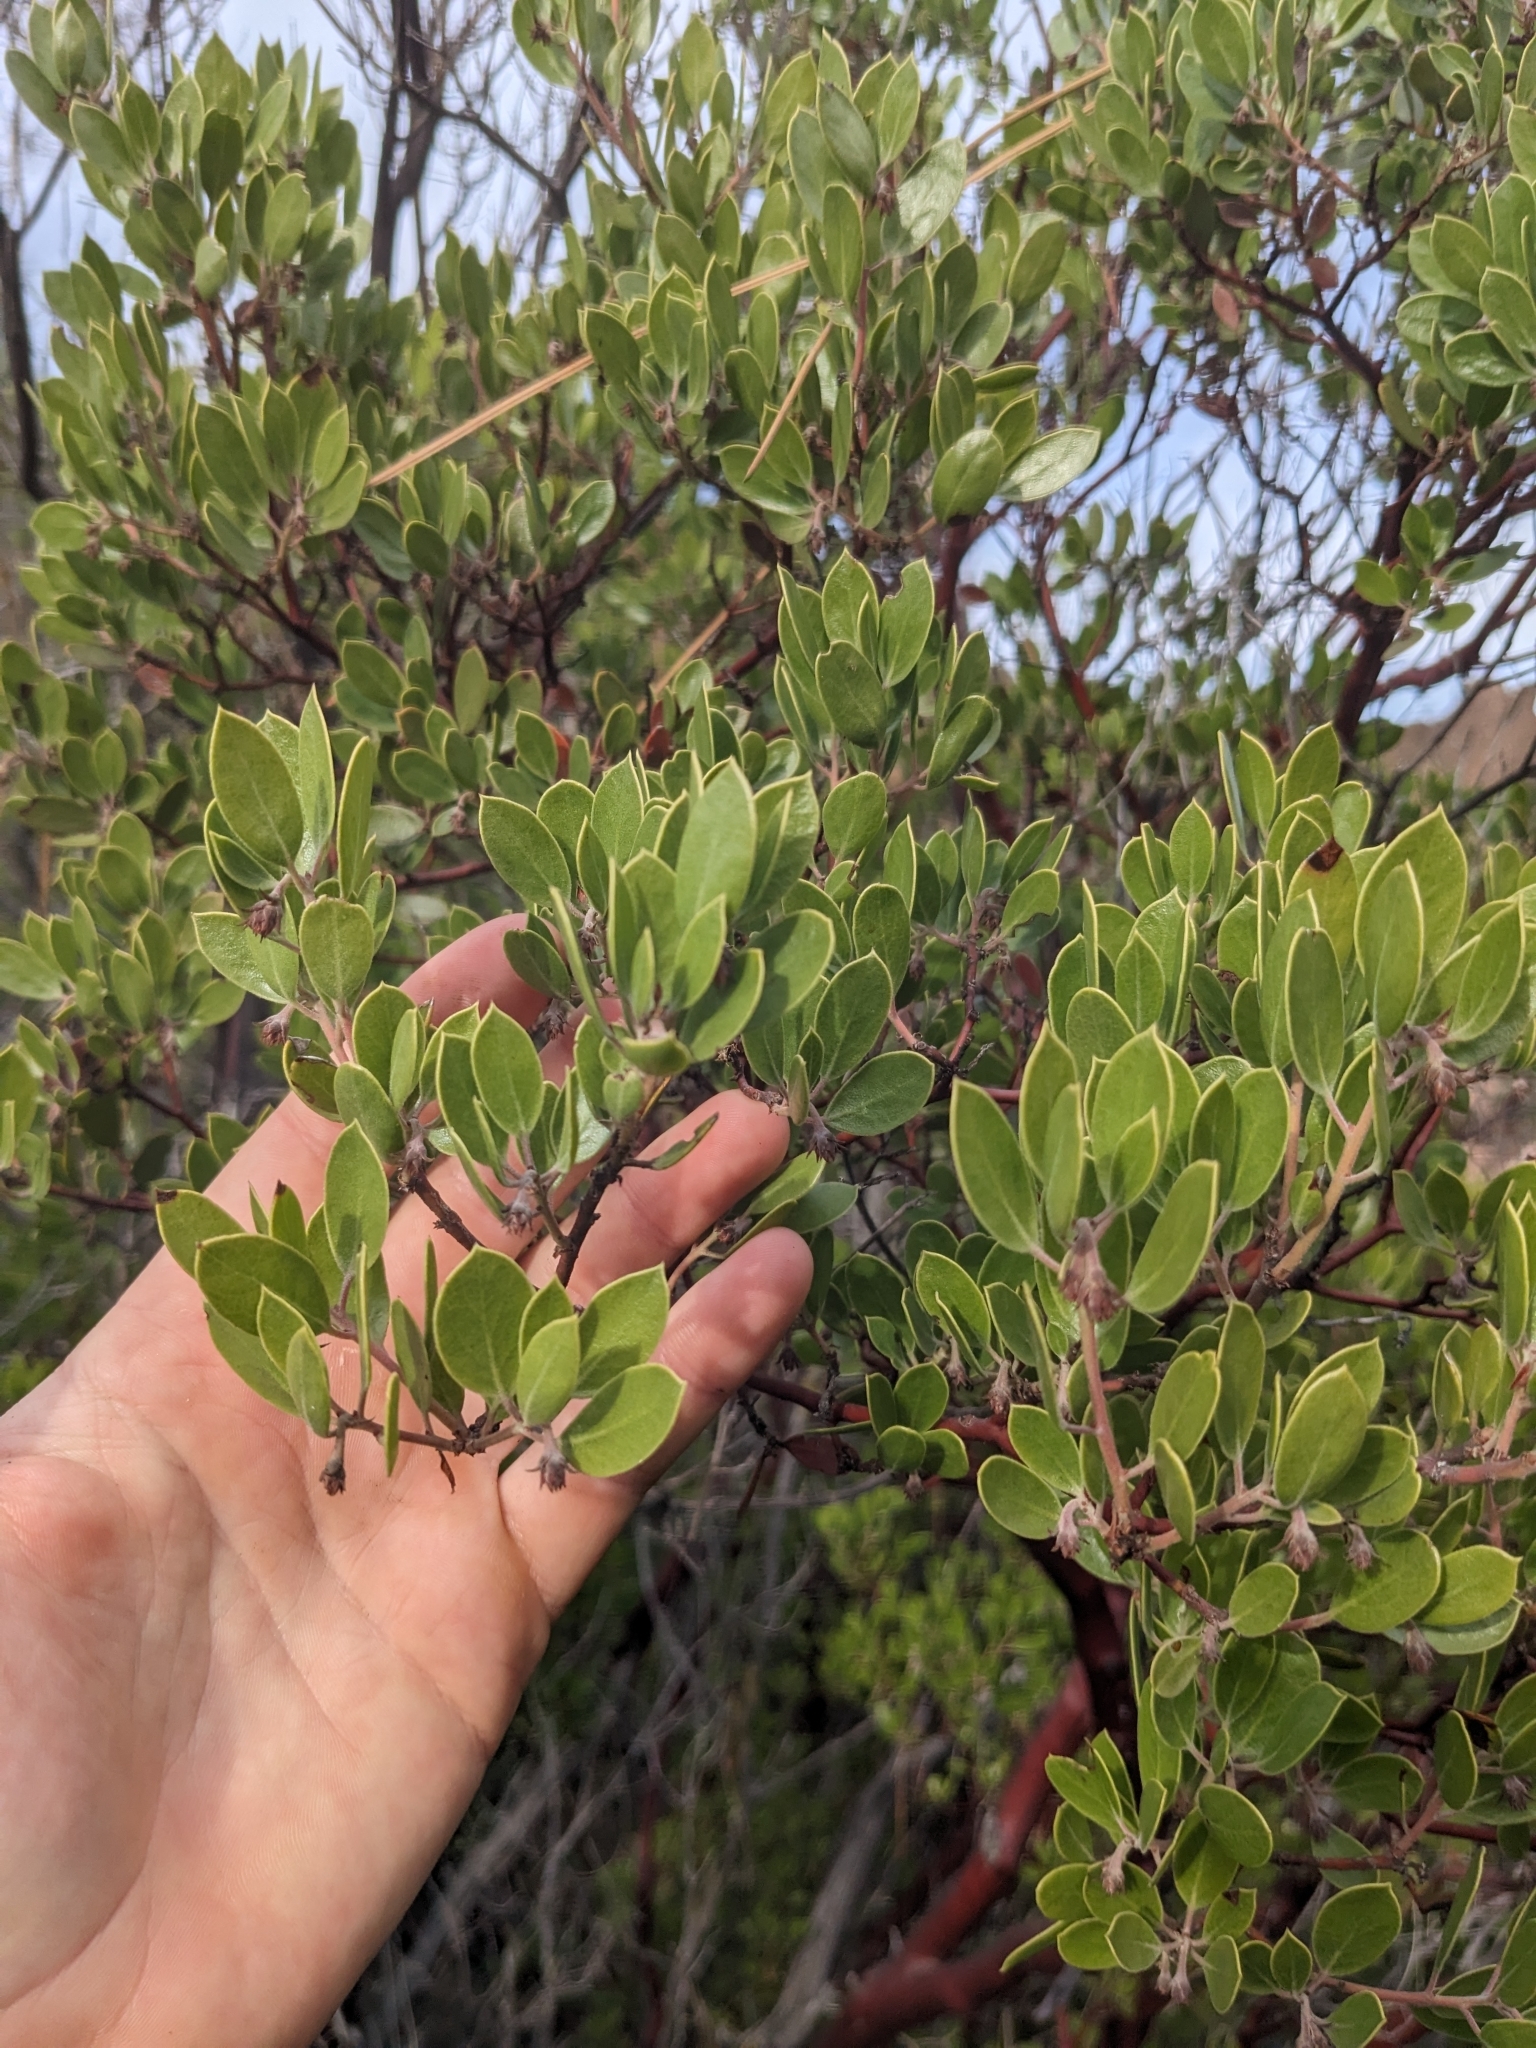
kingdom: Plantae
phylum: Tracheophyta
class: Magnoliopsida
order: Ericales
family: Ericaceae
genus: Arctostaphylos
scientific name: Arctostaphylos pungens
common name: Mexican manzanita
